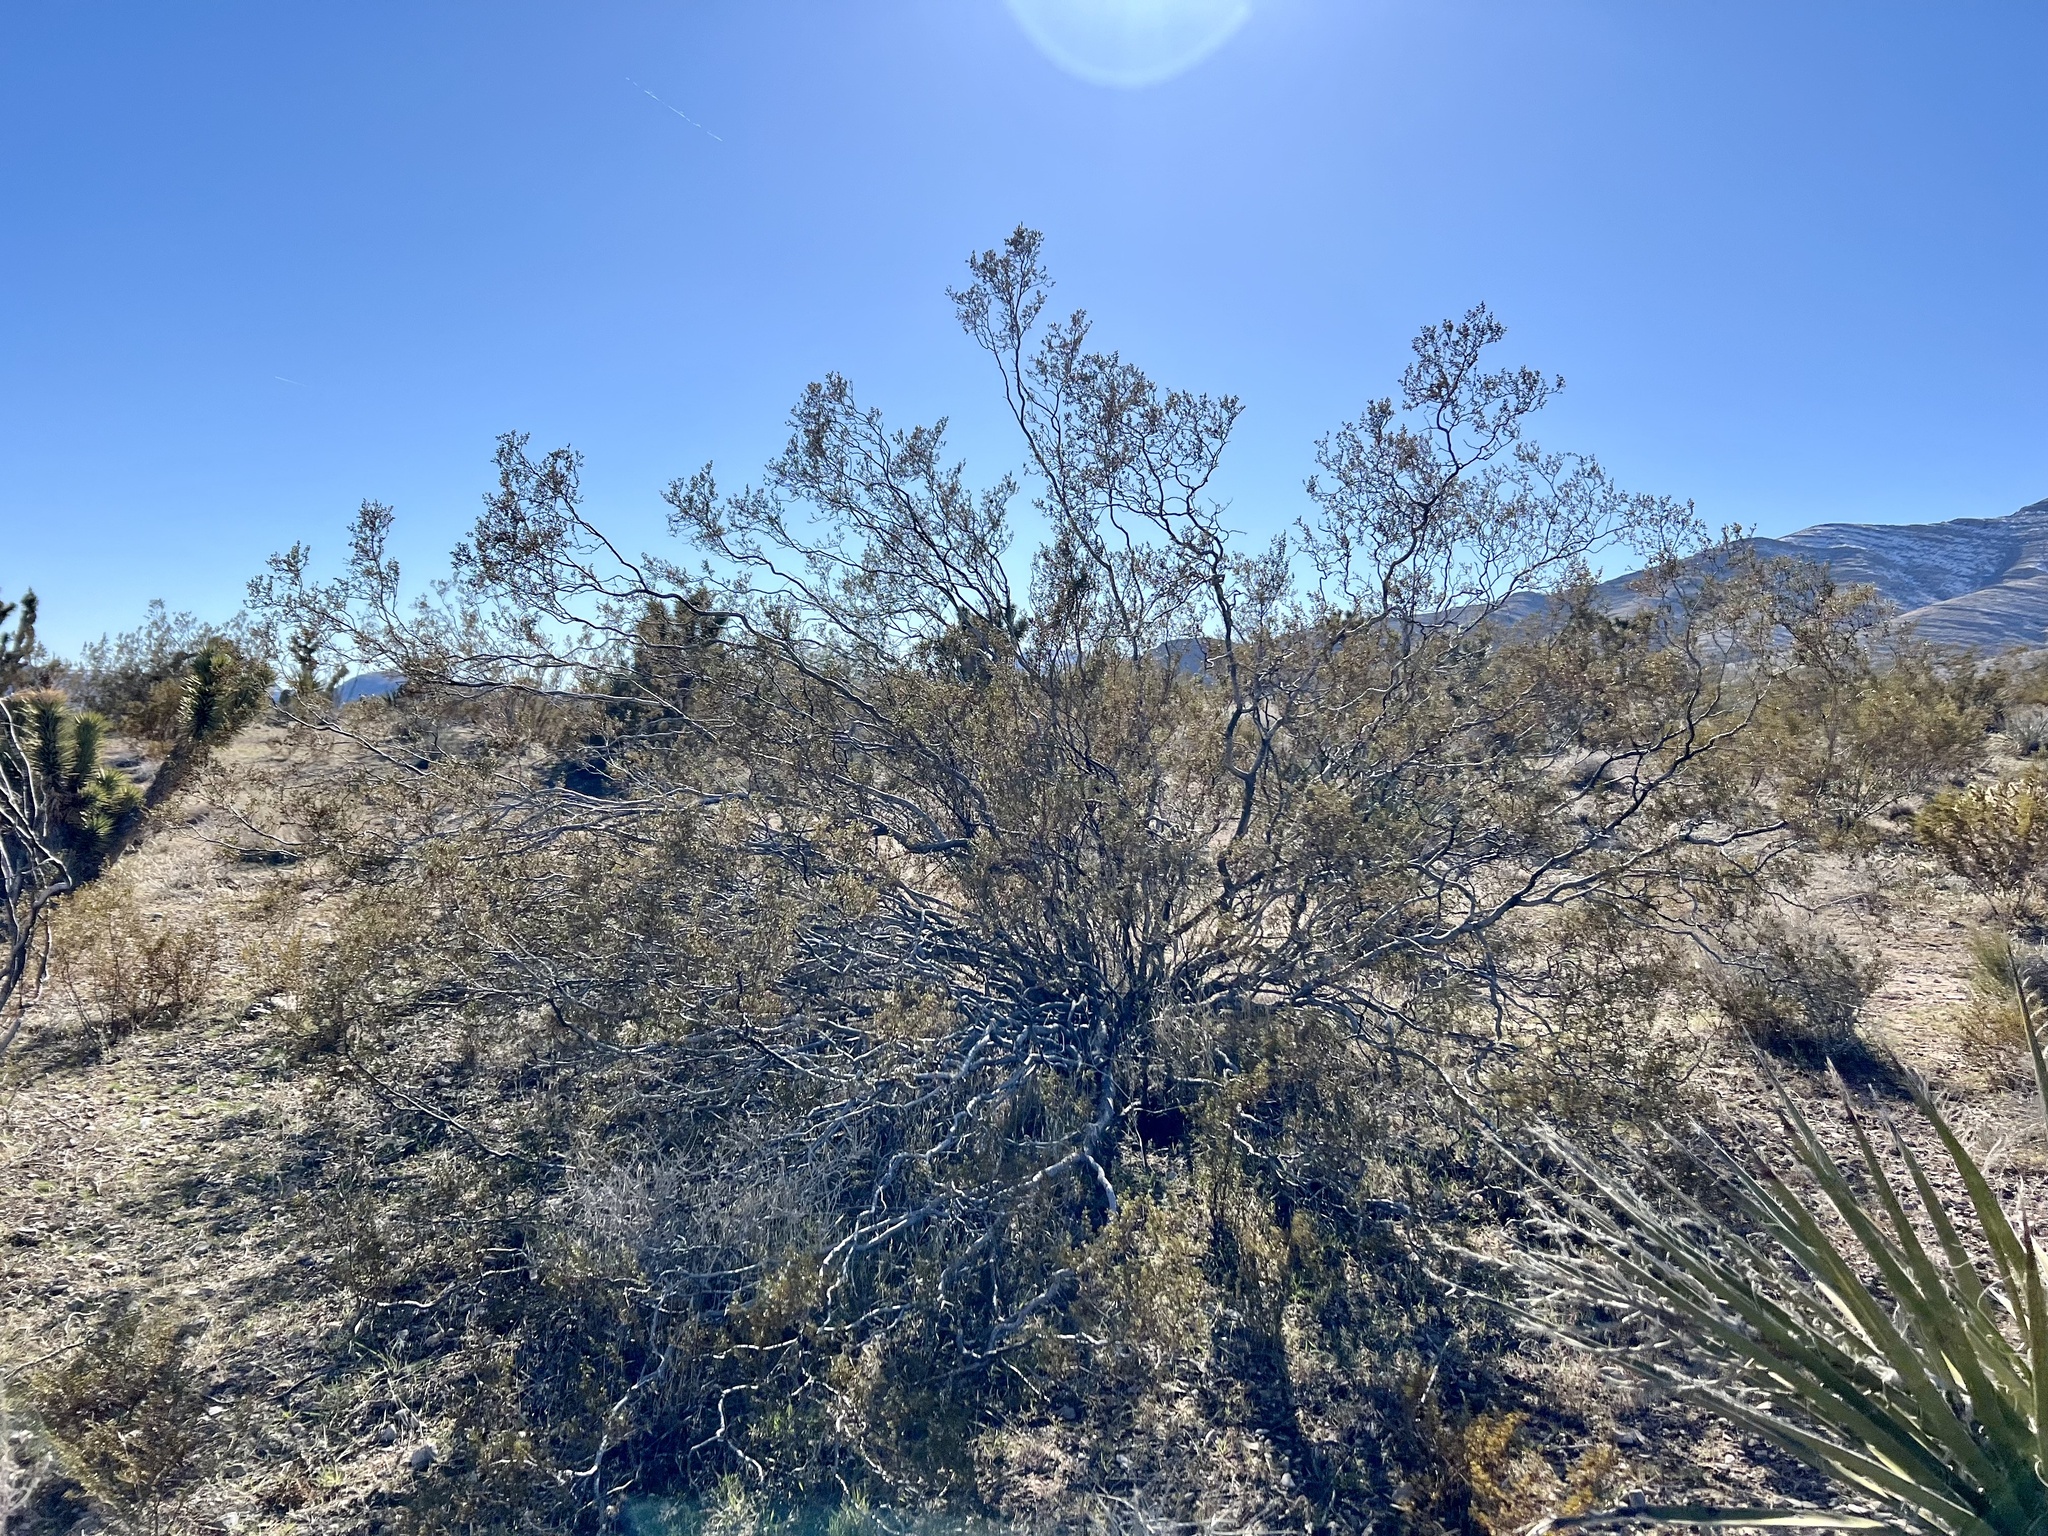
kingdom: Plantae
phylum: Tracheophyta
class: Magnoliopsida
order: Zygophyllales
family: Zygophyllaceae
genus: Larrea
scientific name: Larrea tridentata
